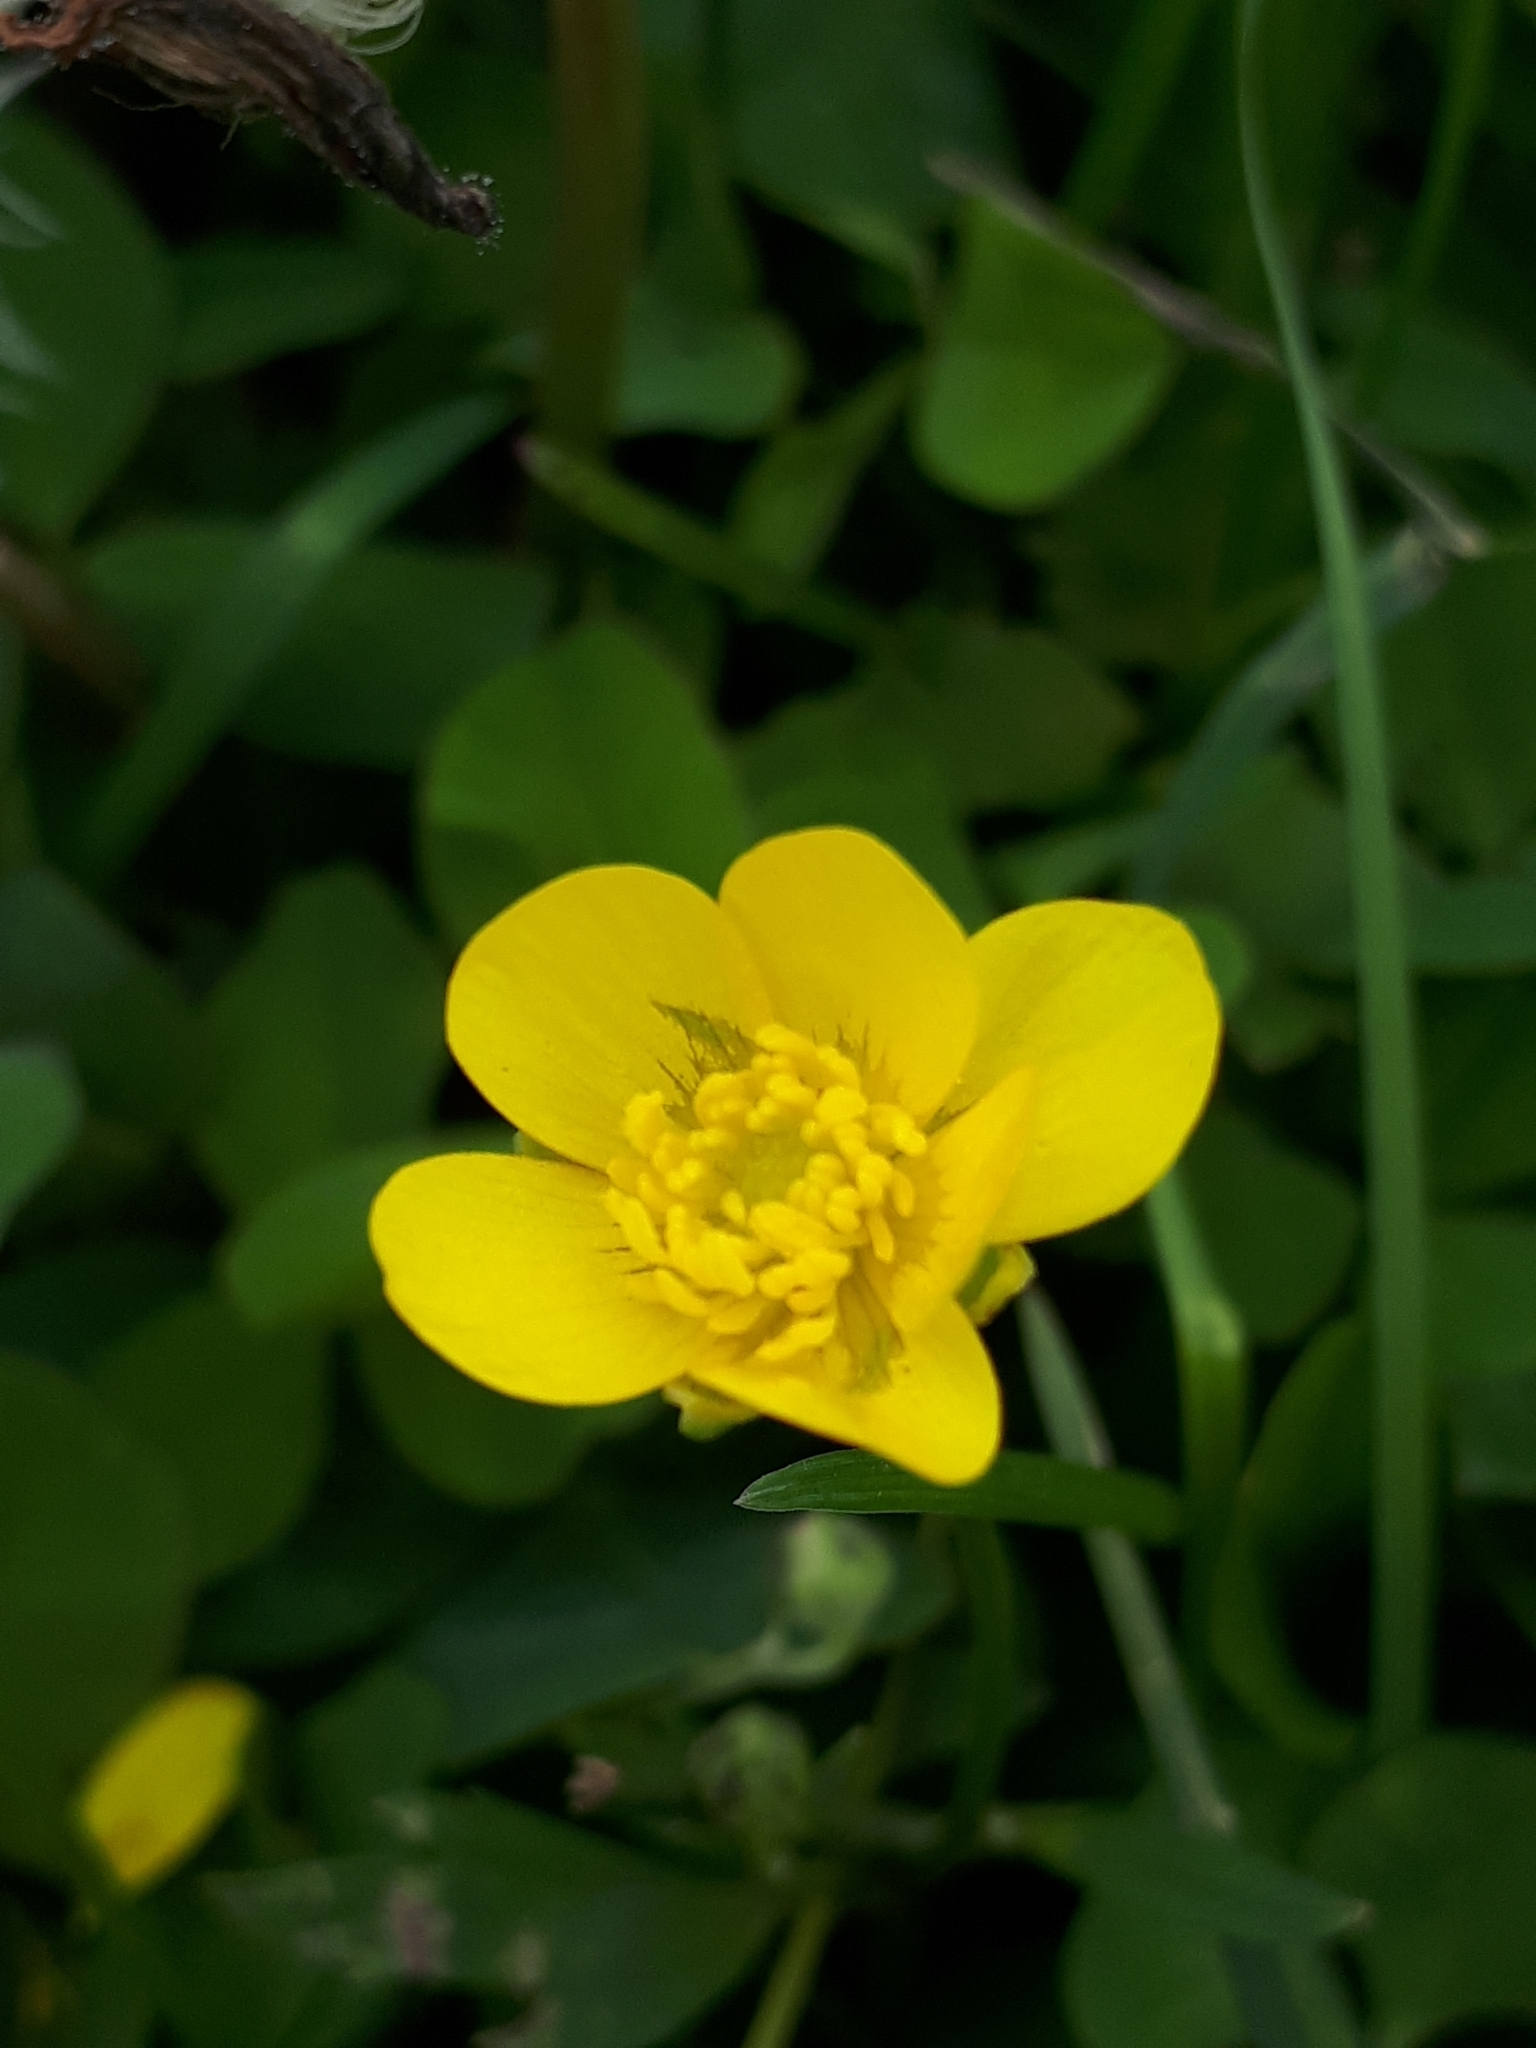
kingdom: Plantae
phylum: Tracheophyta
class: Magnoliopsida
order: Ranunculales
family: Ranunculaceae
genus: Ranunculus
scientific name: Ranunculus acris
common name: Meadow buttercup
